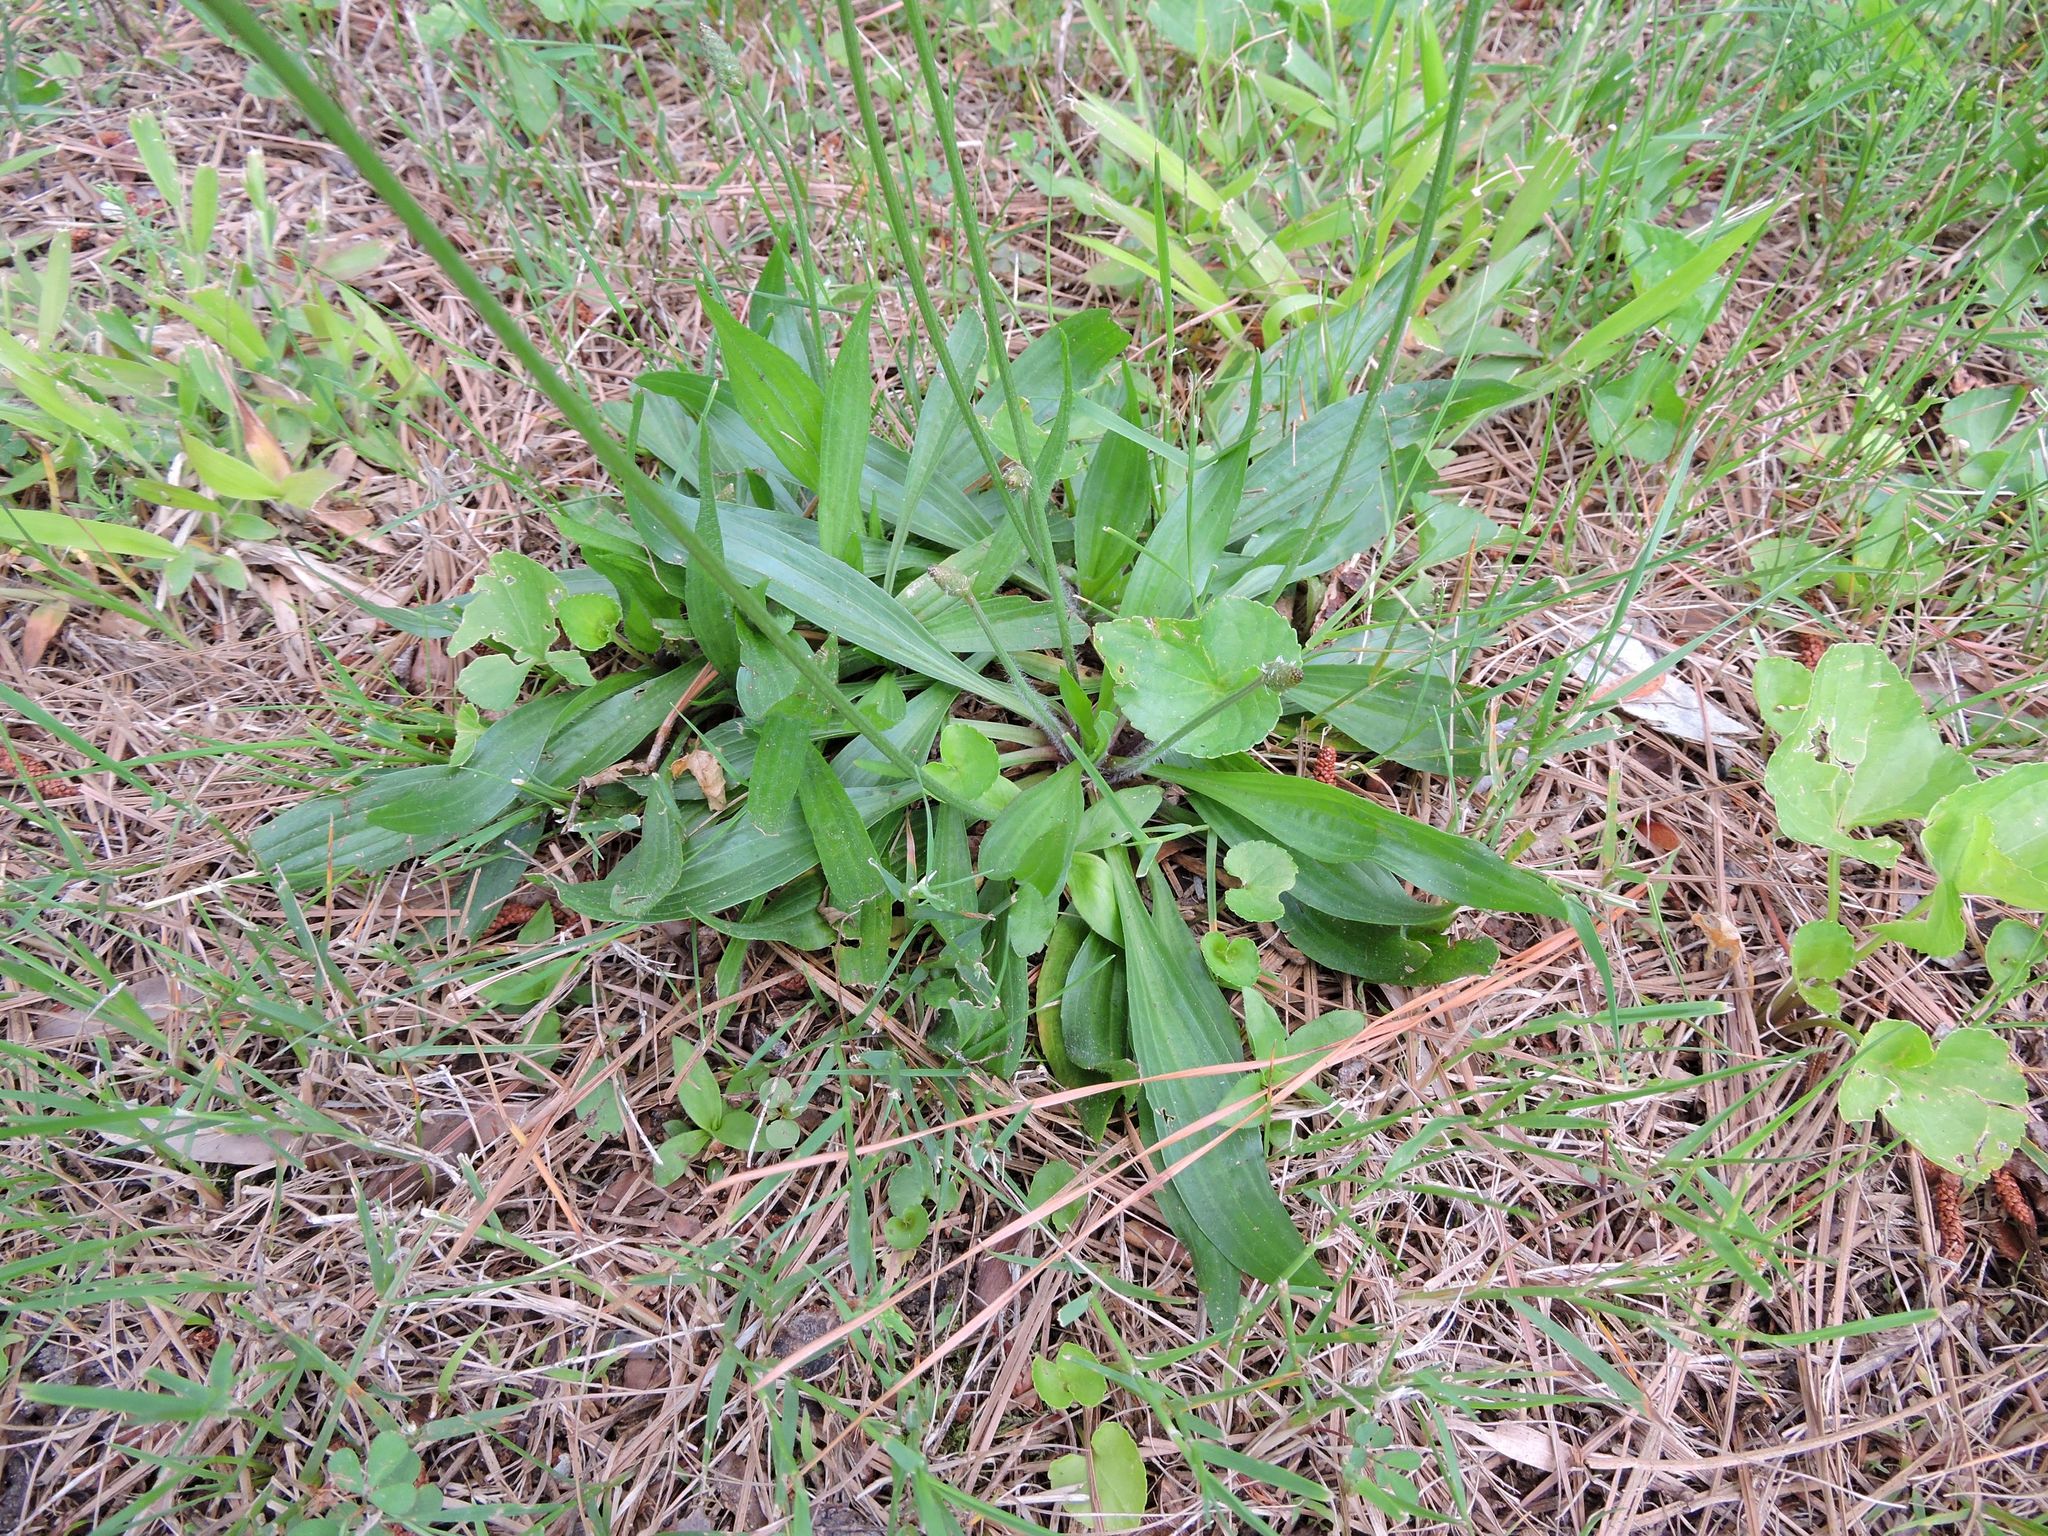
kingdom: Plantae
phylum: Tracheophyta
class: Magnoliopsida
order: Lamiales
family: Plantaginaceae
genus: Plantago
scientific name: Plantago lanceolata
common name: Ribwort plantain
